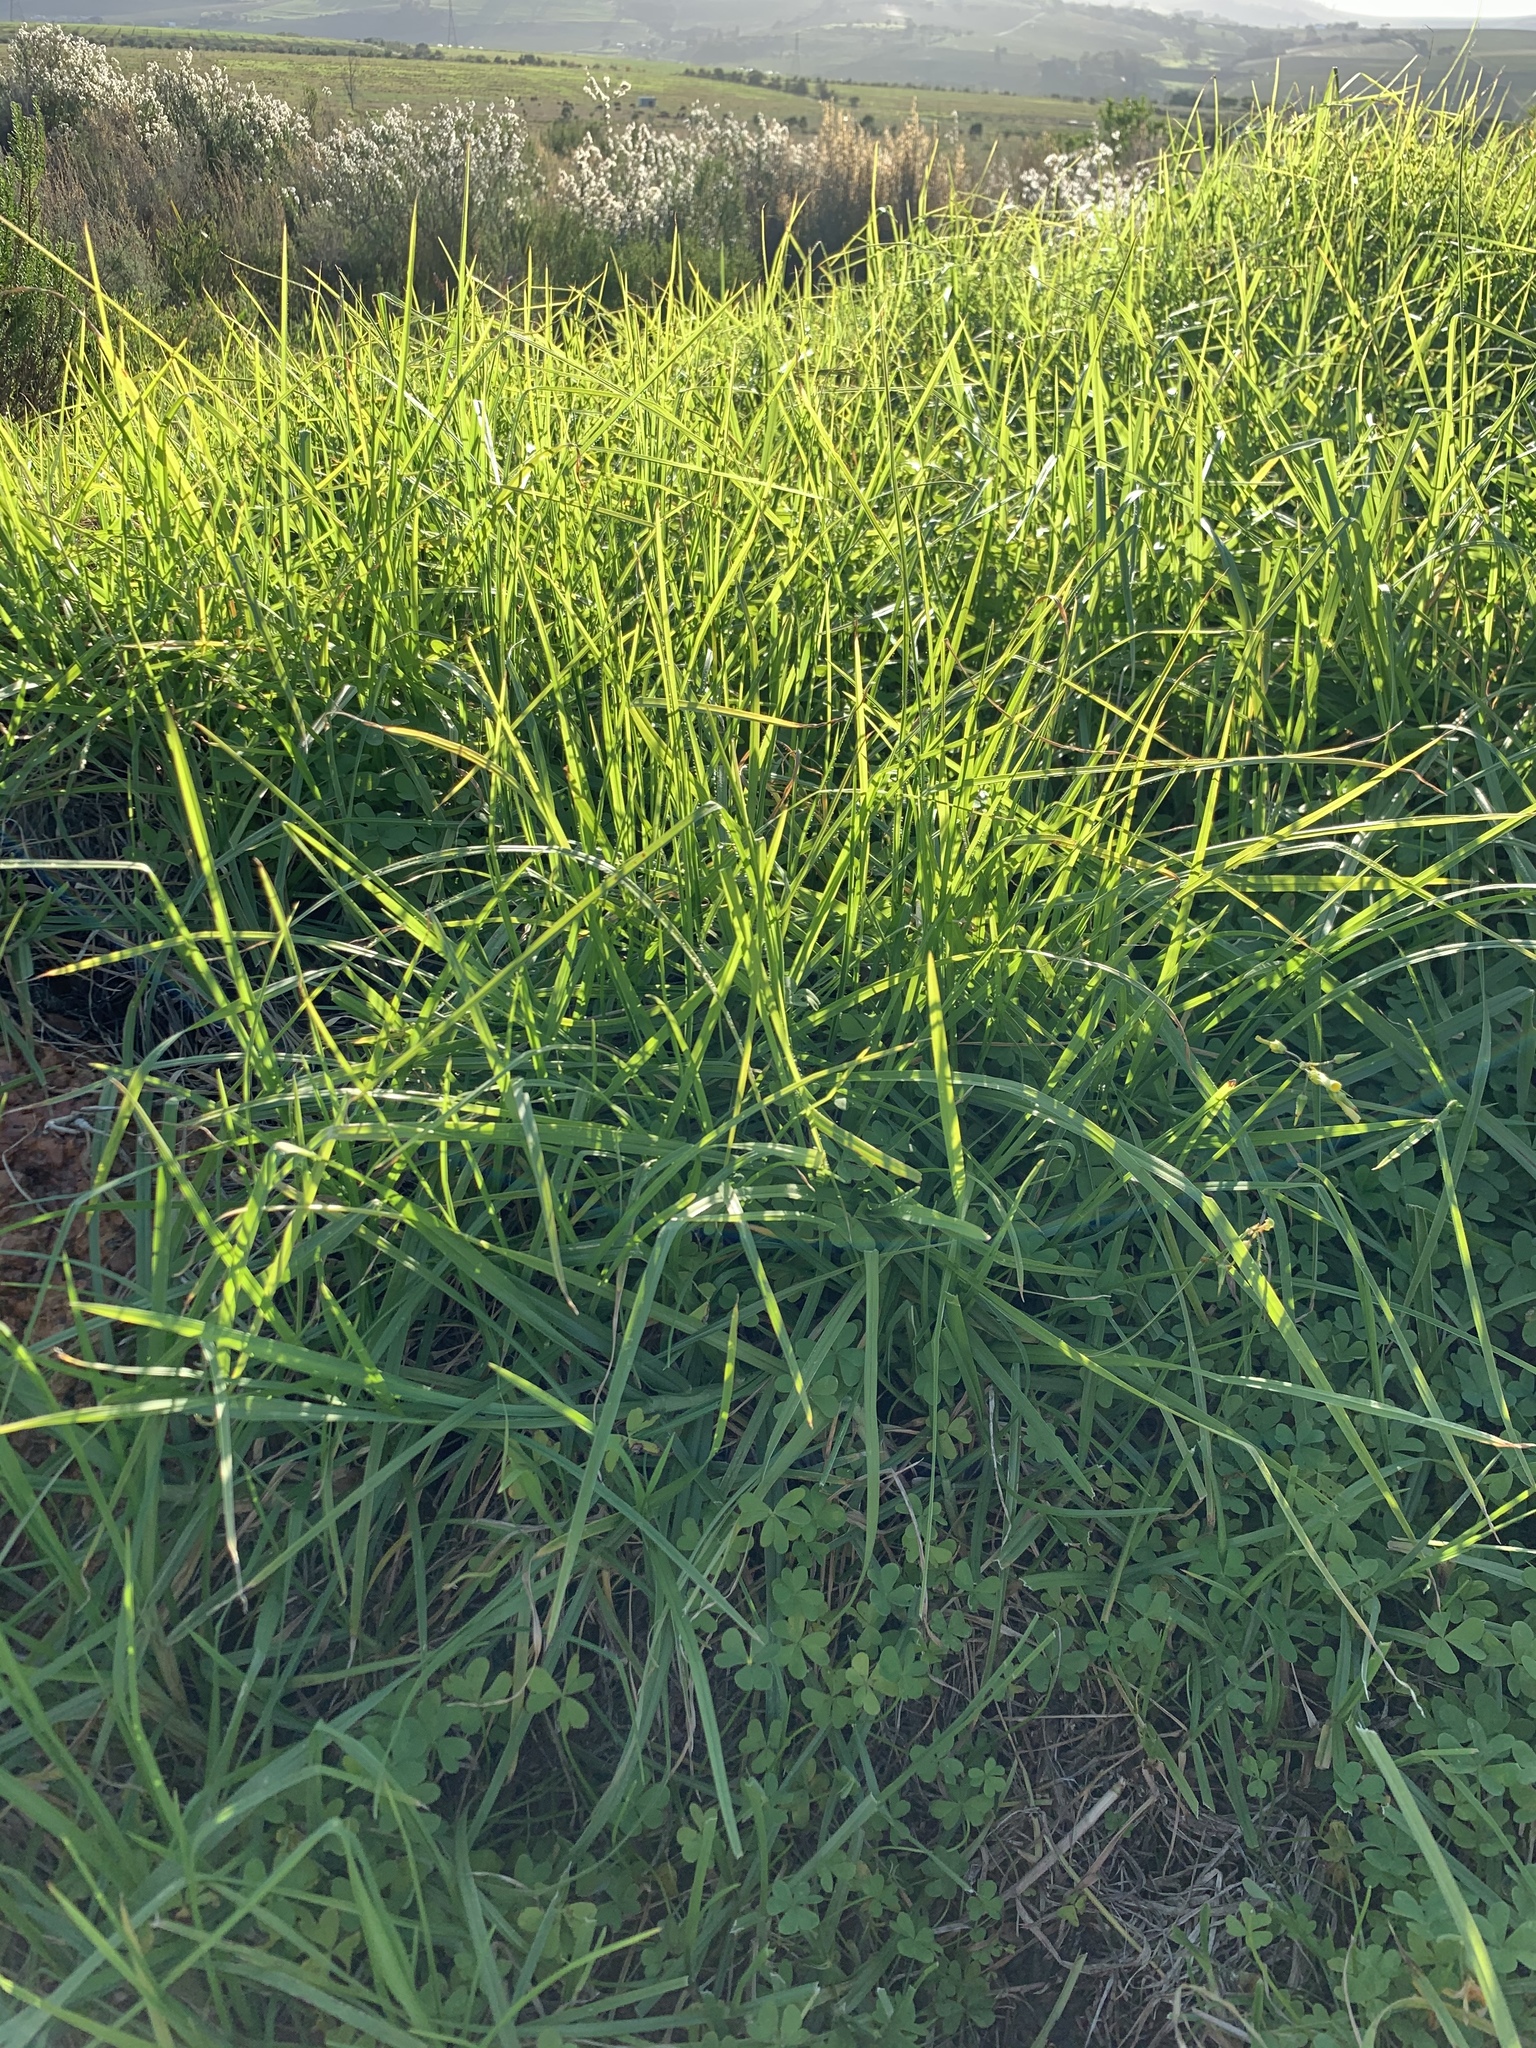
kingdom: Plantae
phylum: Tracheophyta
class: Liliopsida
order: Poales
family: Poaceae
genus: Cenchrus
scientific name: Cenchrus clandestinus
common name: Kikuyugrass
